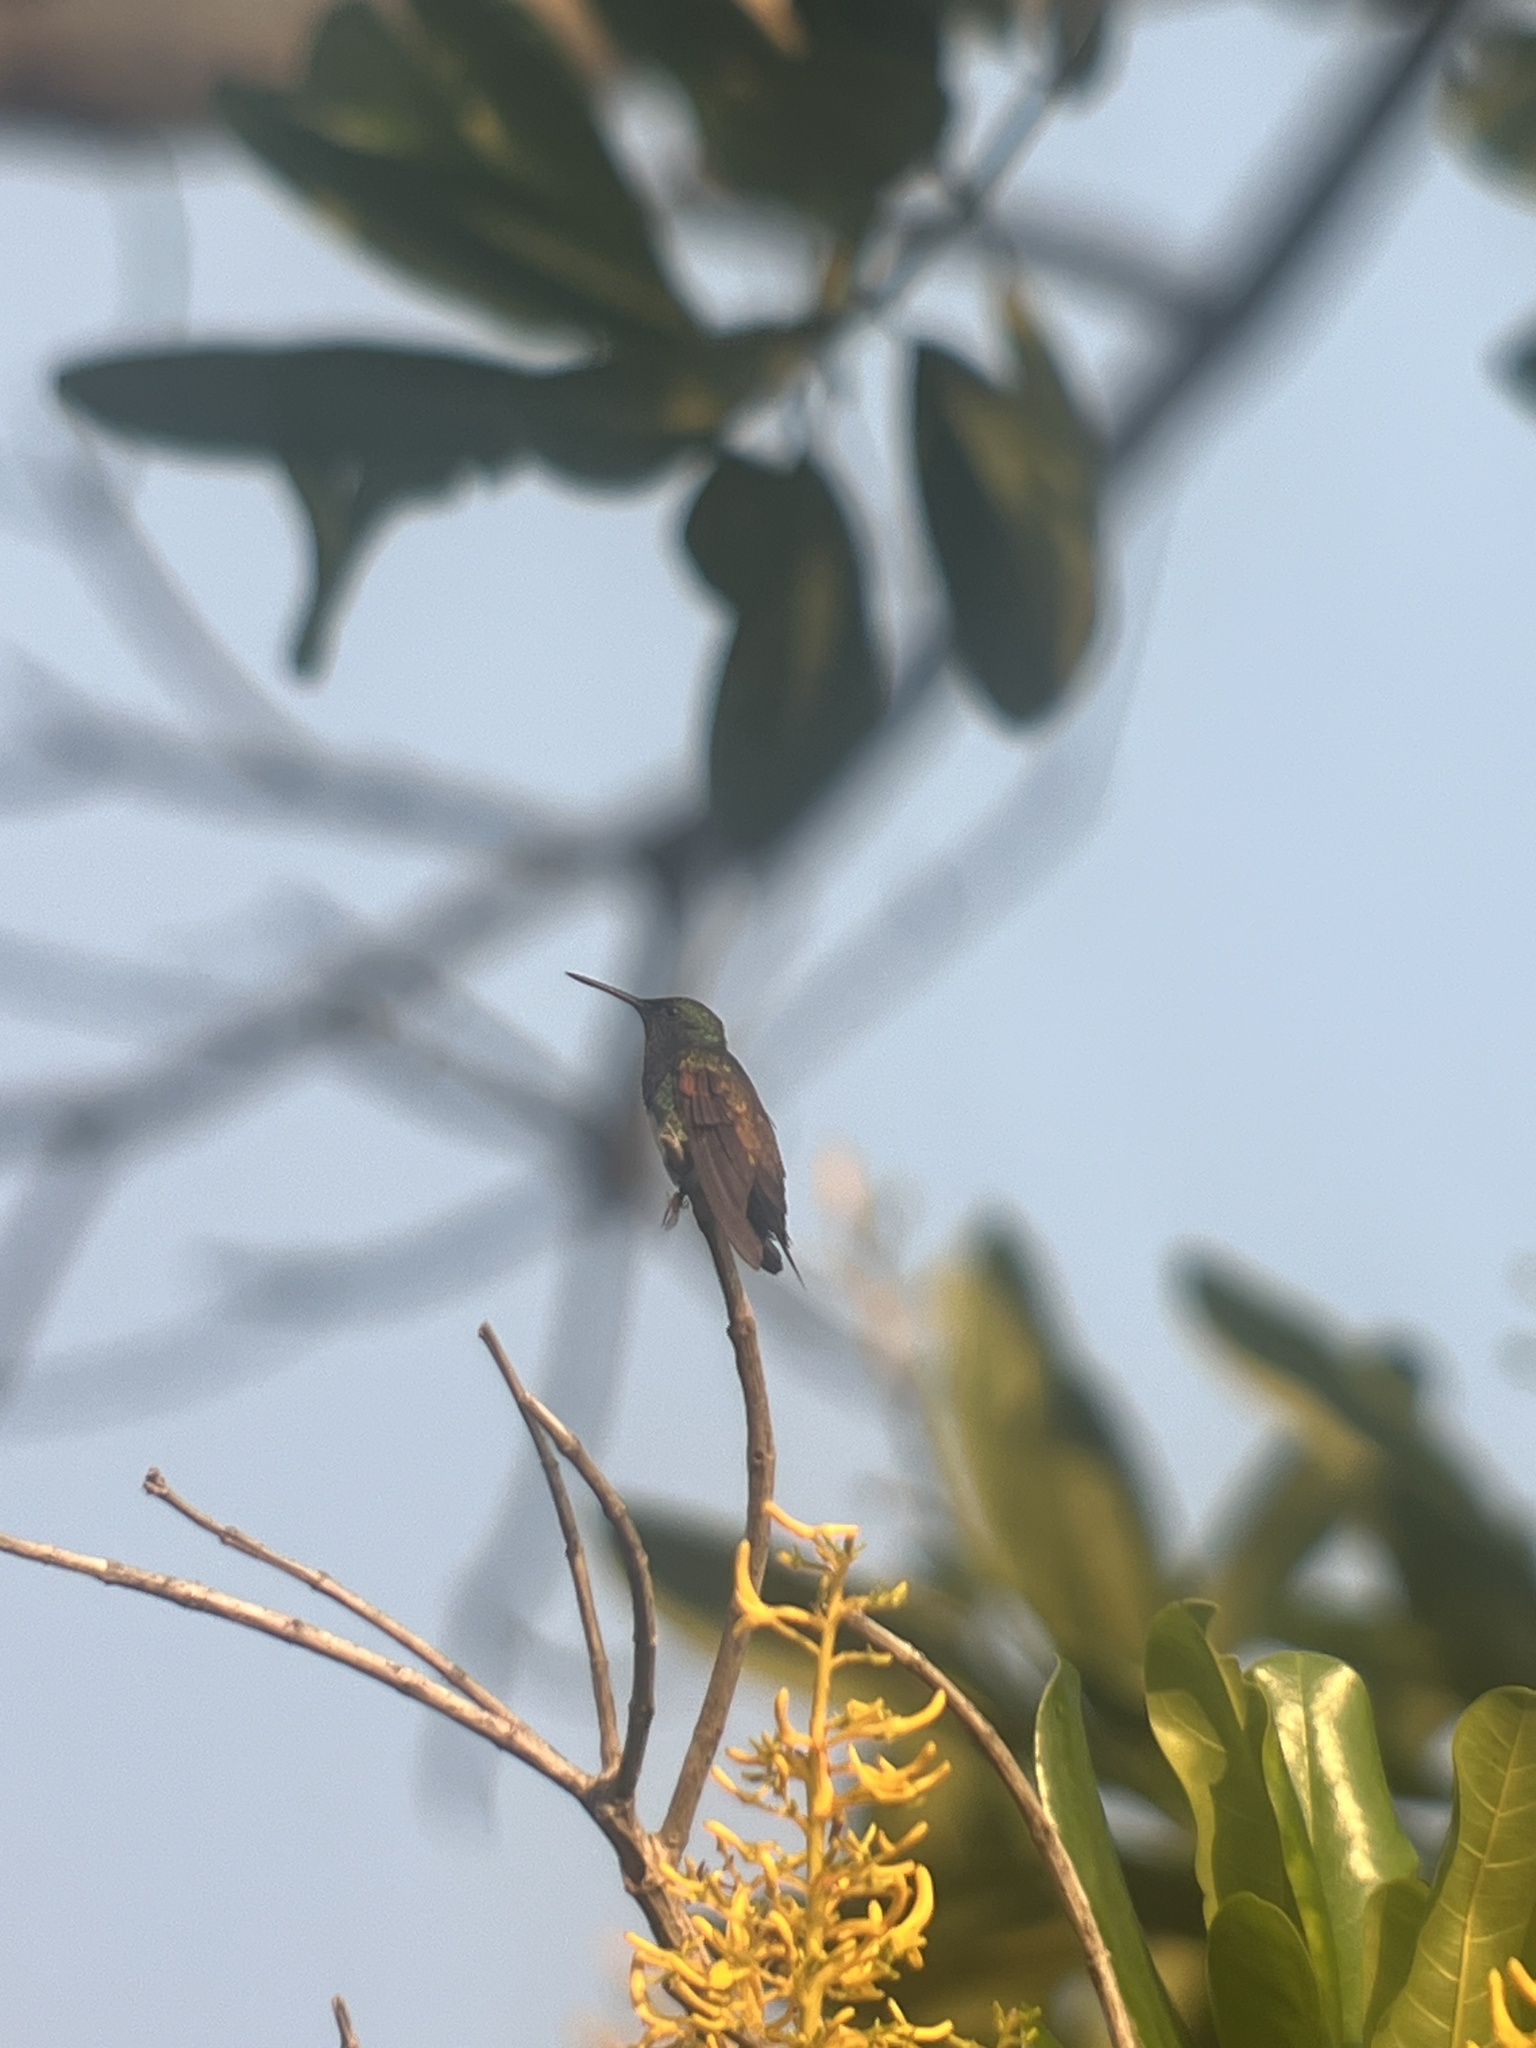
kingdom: Animalia
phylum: Chordata
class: Aves
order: Apodiformes
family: Trochilidae
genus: Saucerottia
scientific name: Saucerottia edward
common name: Snowy-bellied hummingbird
